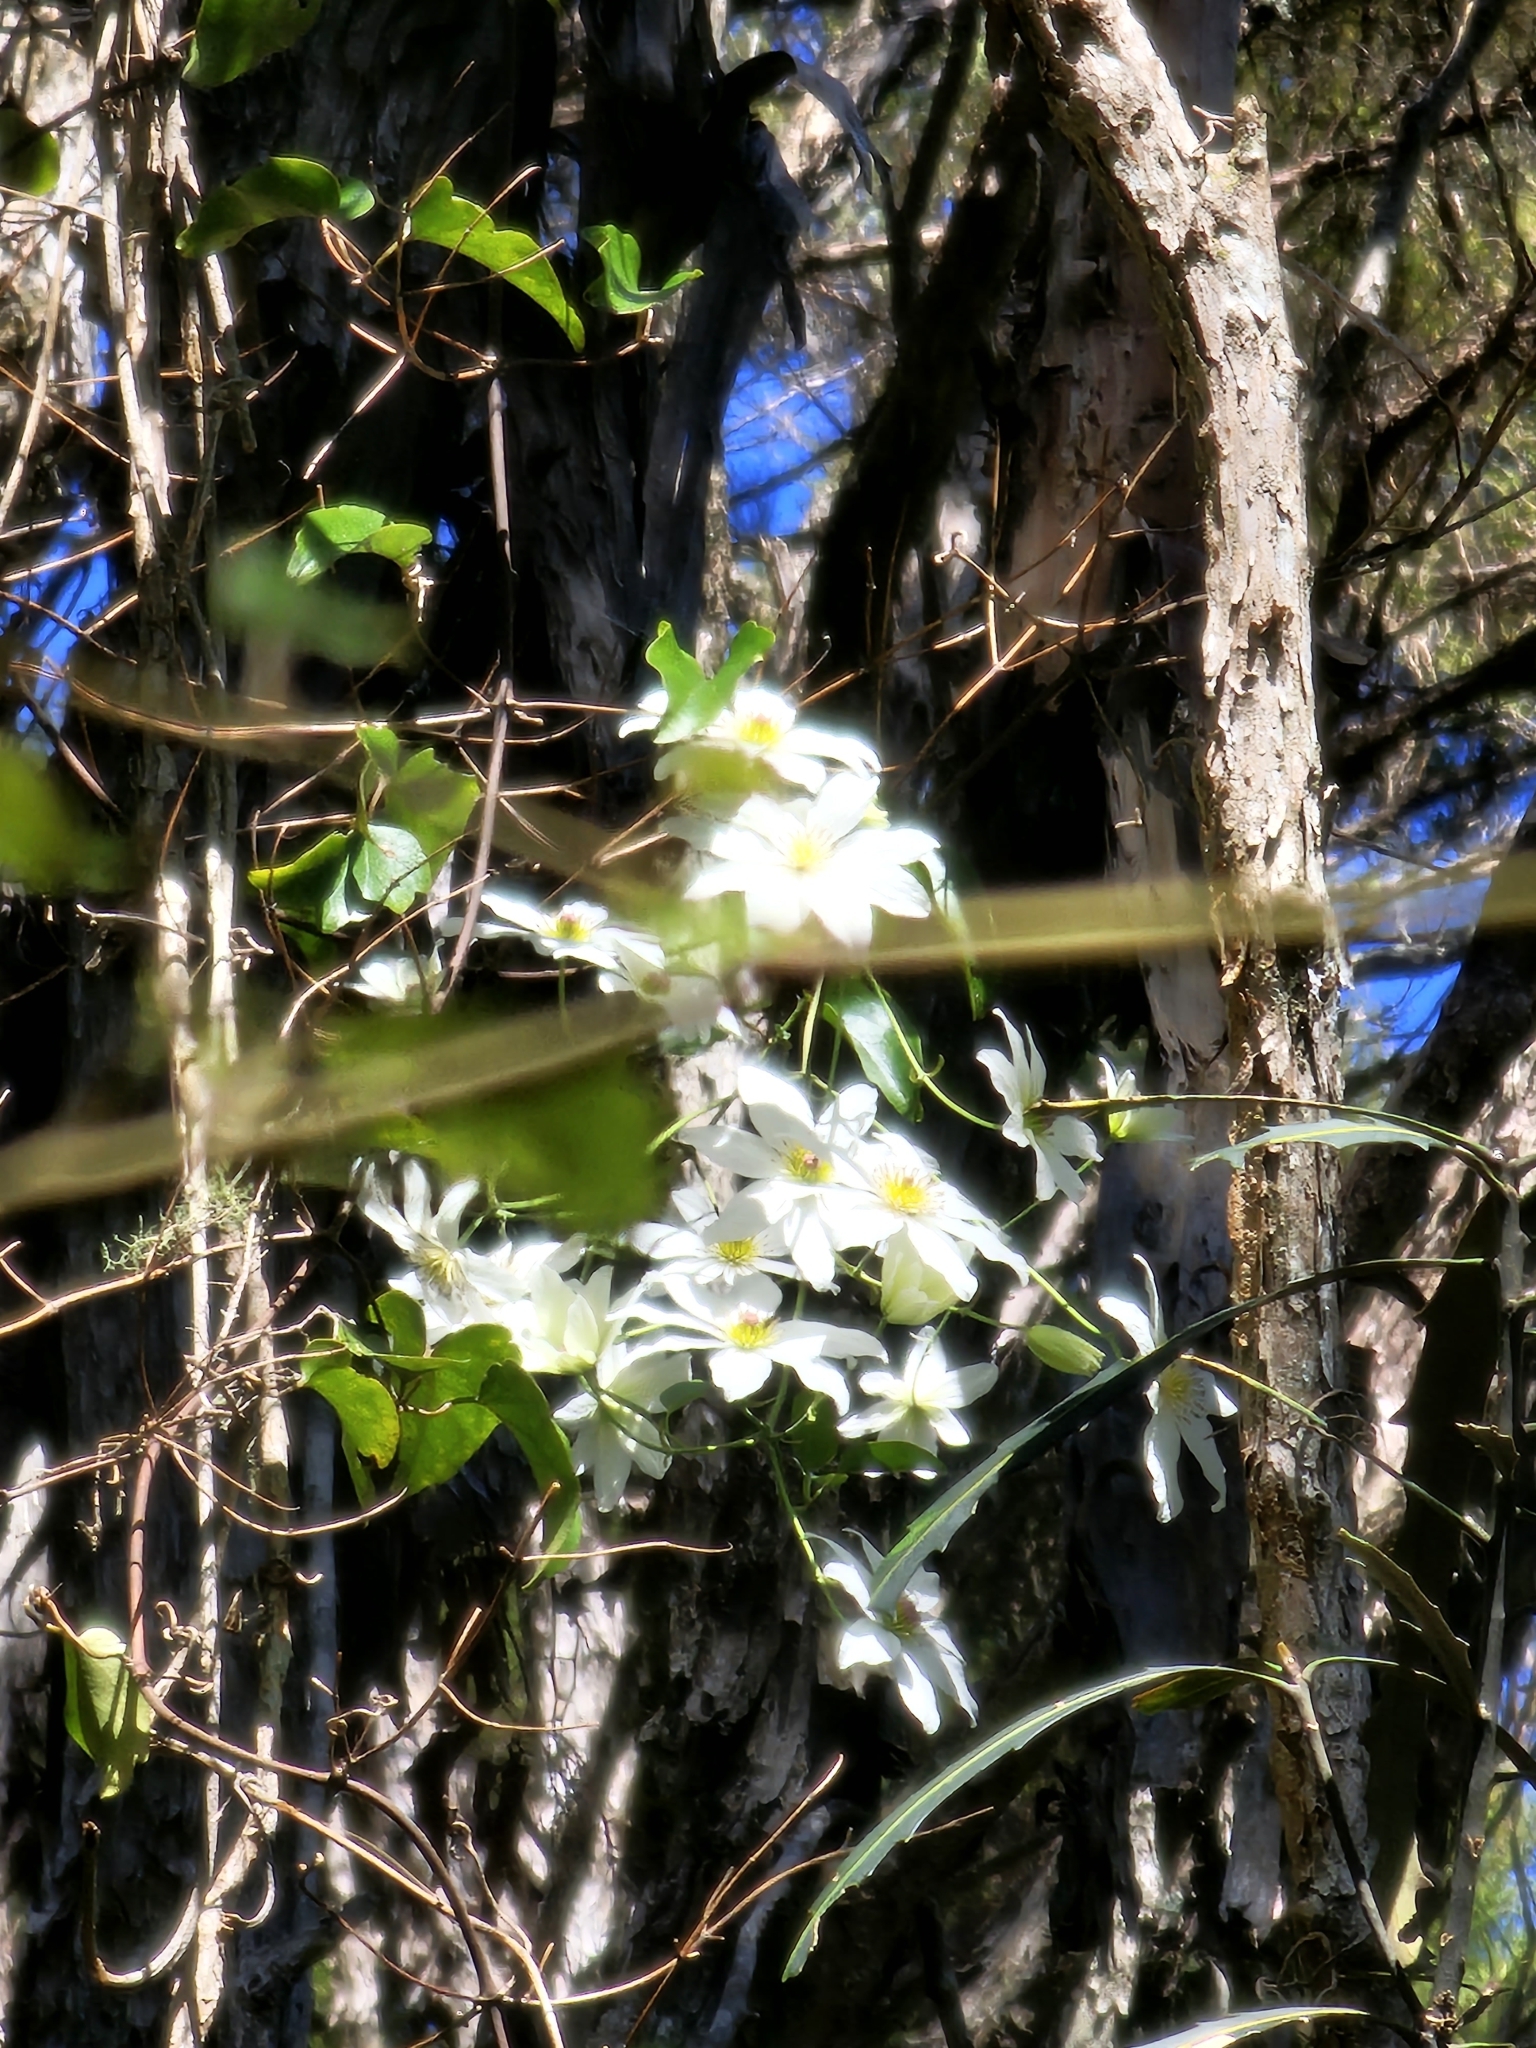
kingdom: Plantae
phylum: Tracheophyta
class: Magnoliopsida
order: Ranunculales
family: Ranunculaceae
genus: Clematis
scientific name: Clematis paniculata
